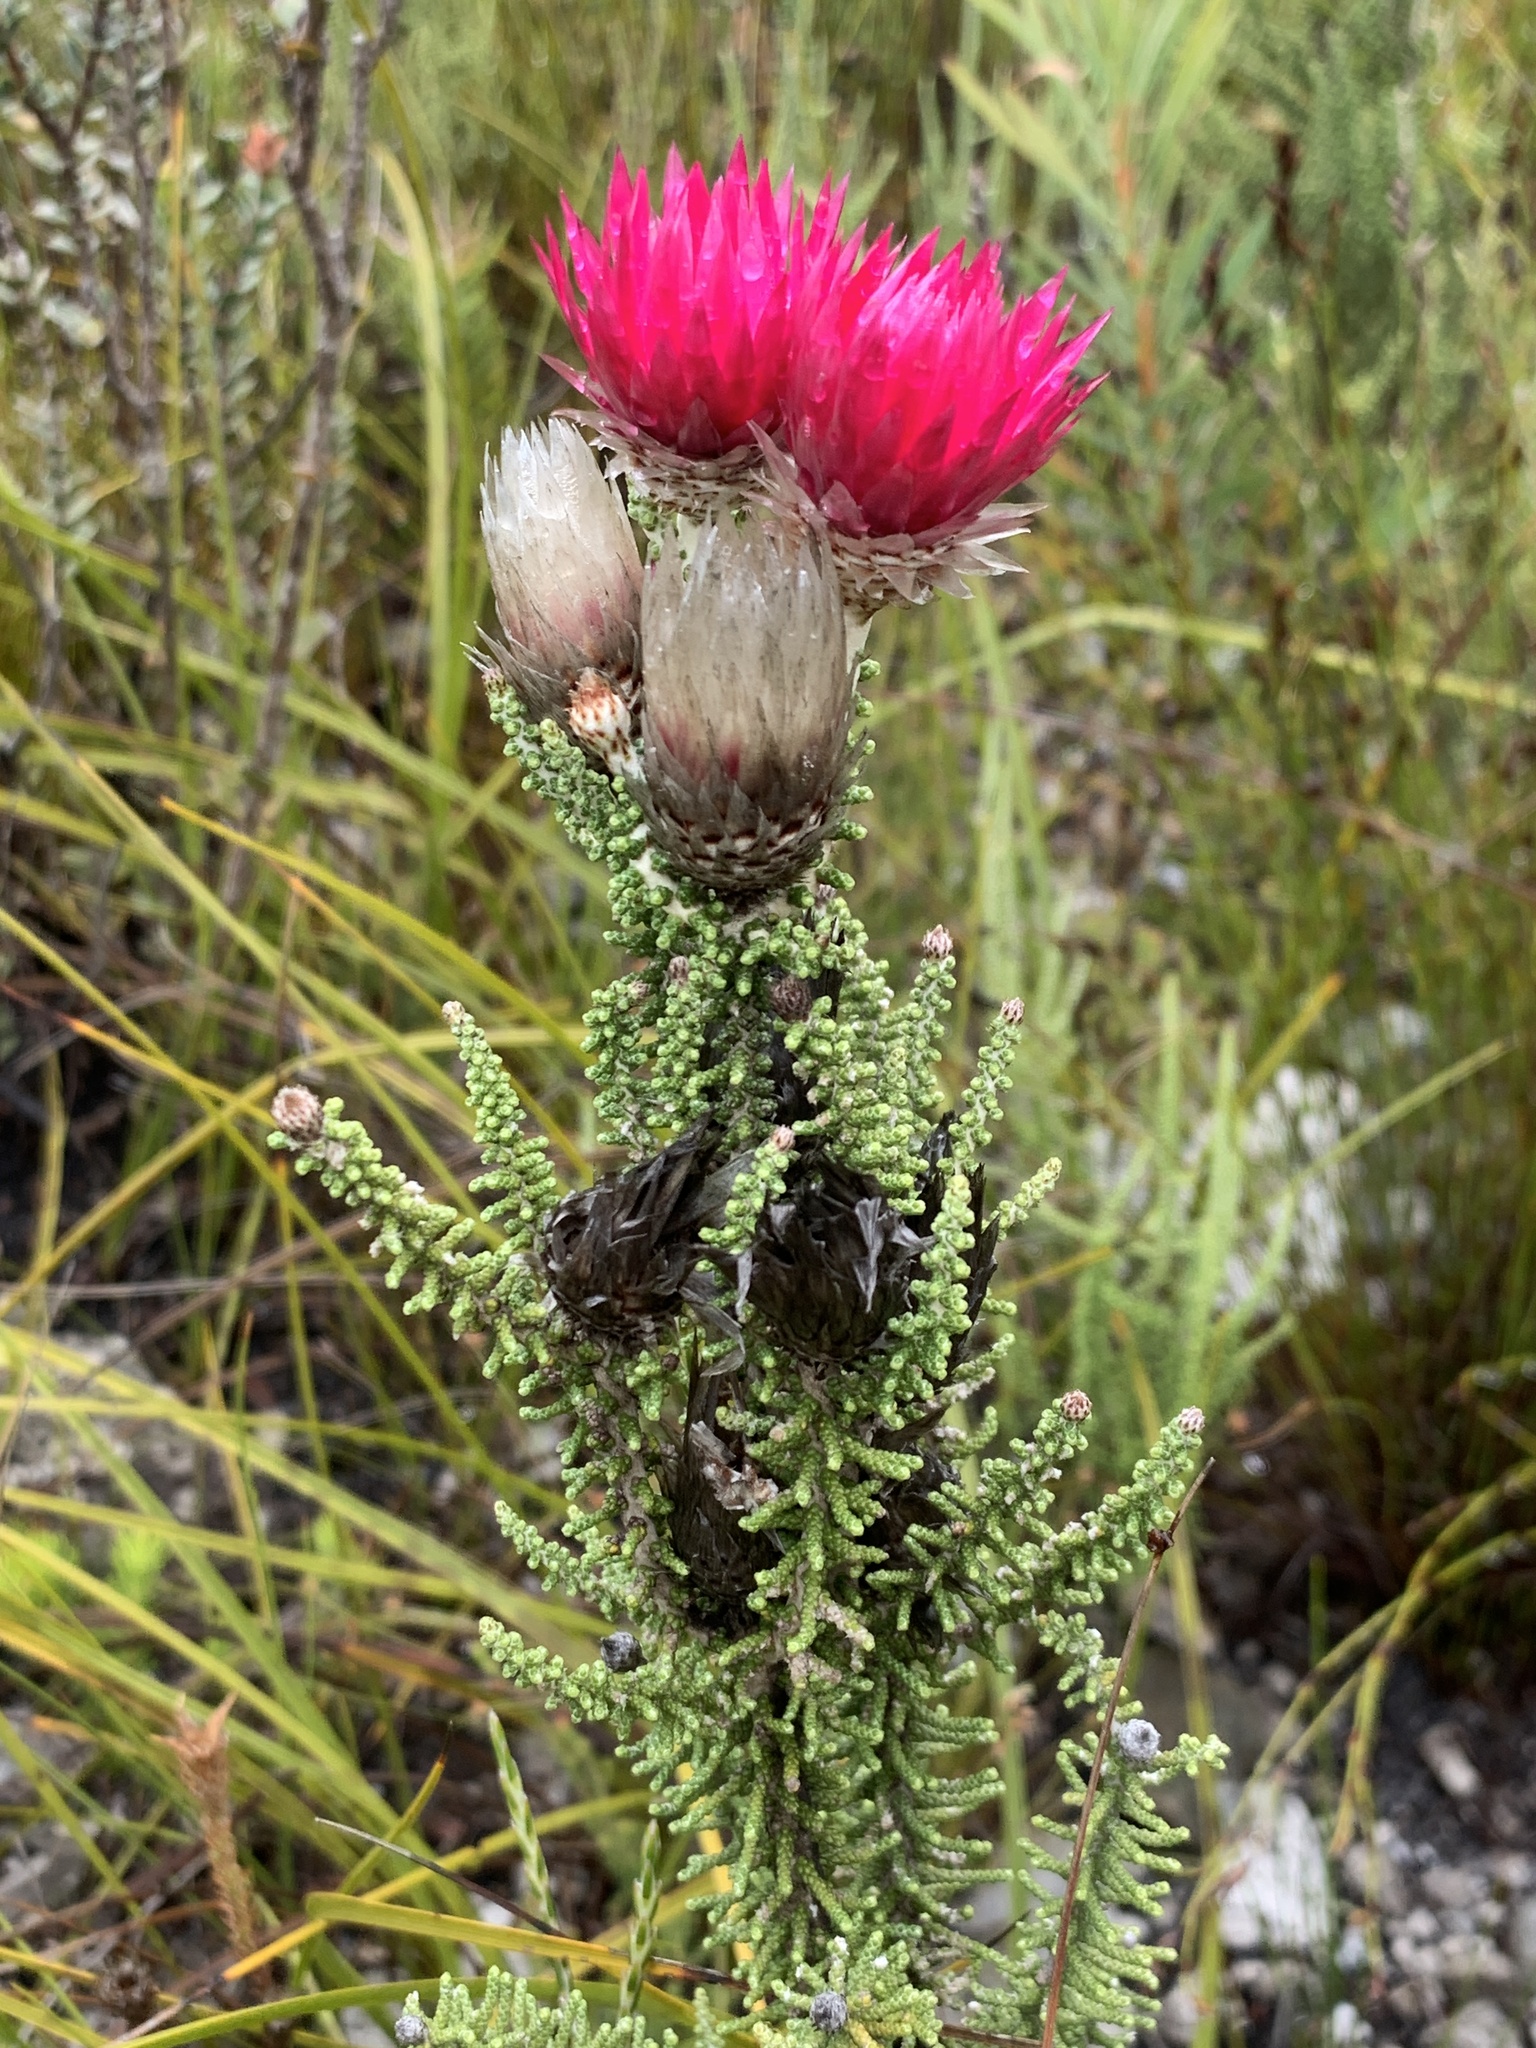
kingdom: Plantae
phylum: Tracheophyta
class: Magnoliopsida
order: Asterales
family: Asteraceae
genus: Phaenocoma
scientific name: Phaenocoma prolifera
